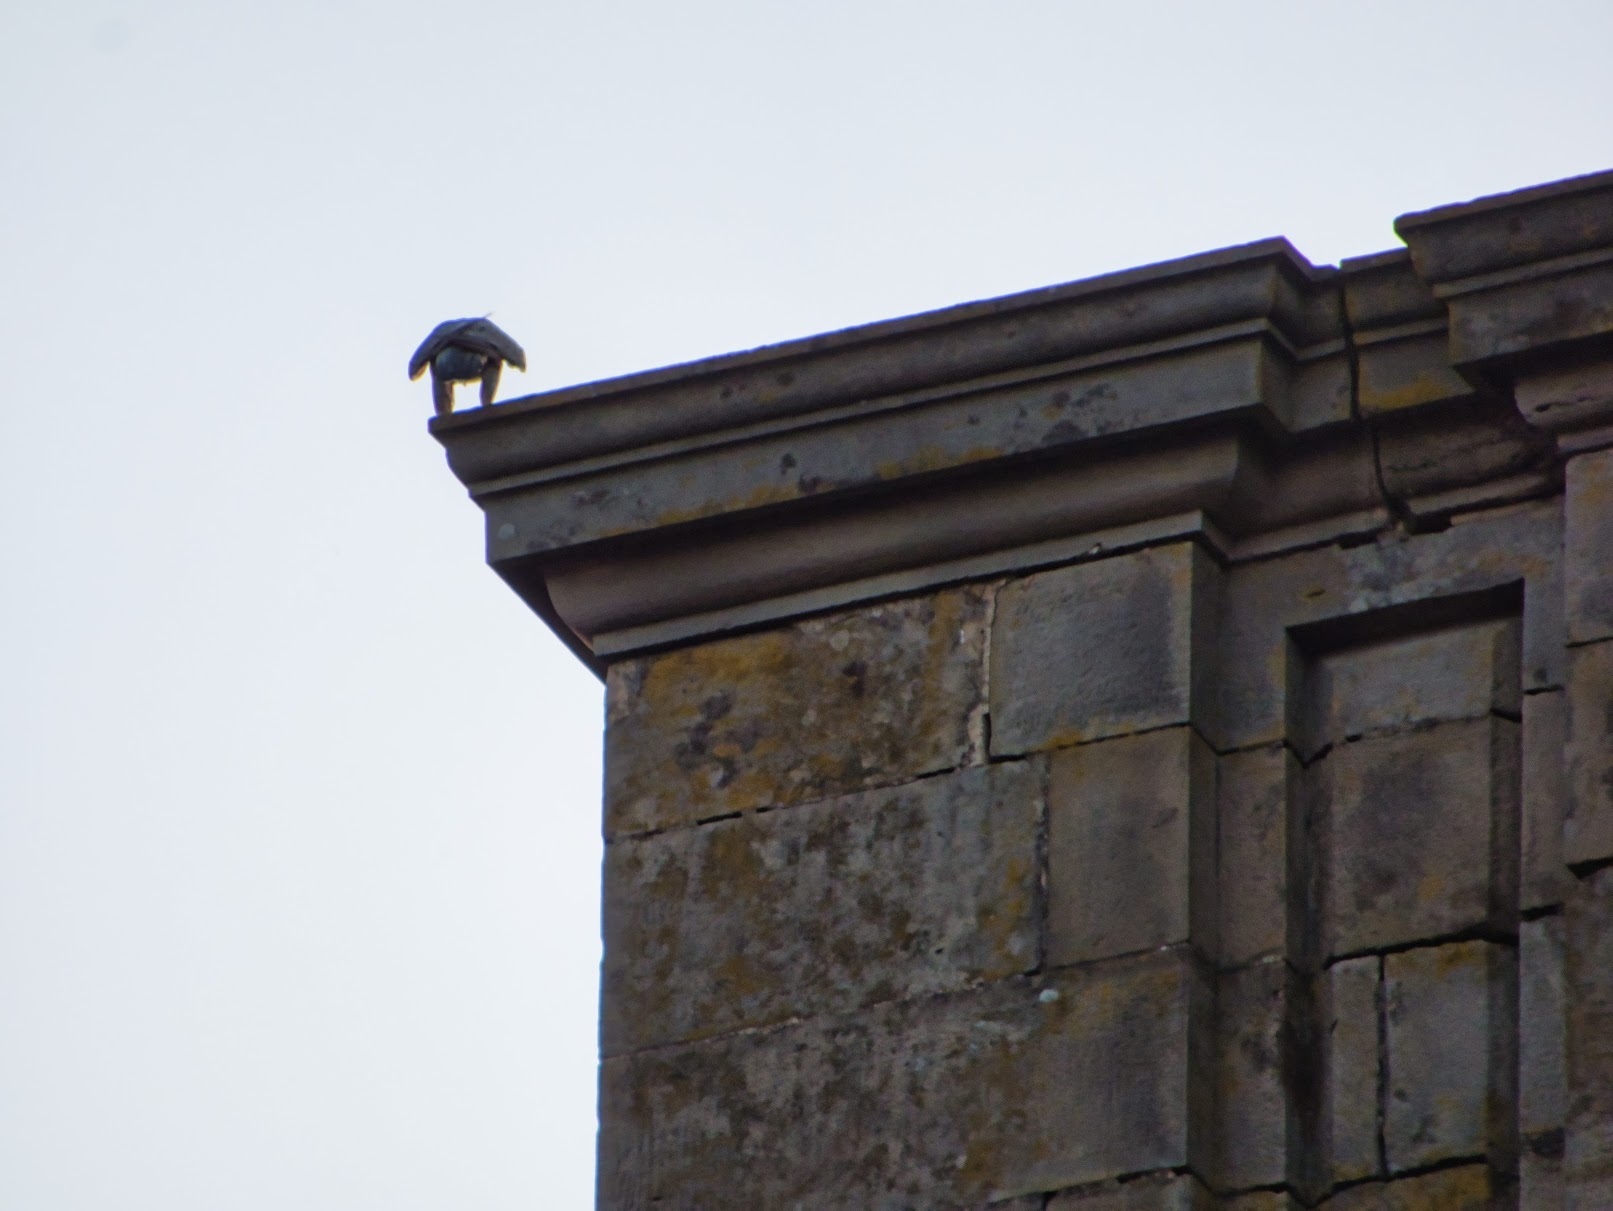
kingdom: Animalia
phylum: Chordata
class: Aves
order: Falconiformes
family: Falconidae
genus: Falco
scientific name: Falco peregrinus
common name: Peregrine falcon
